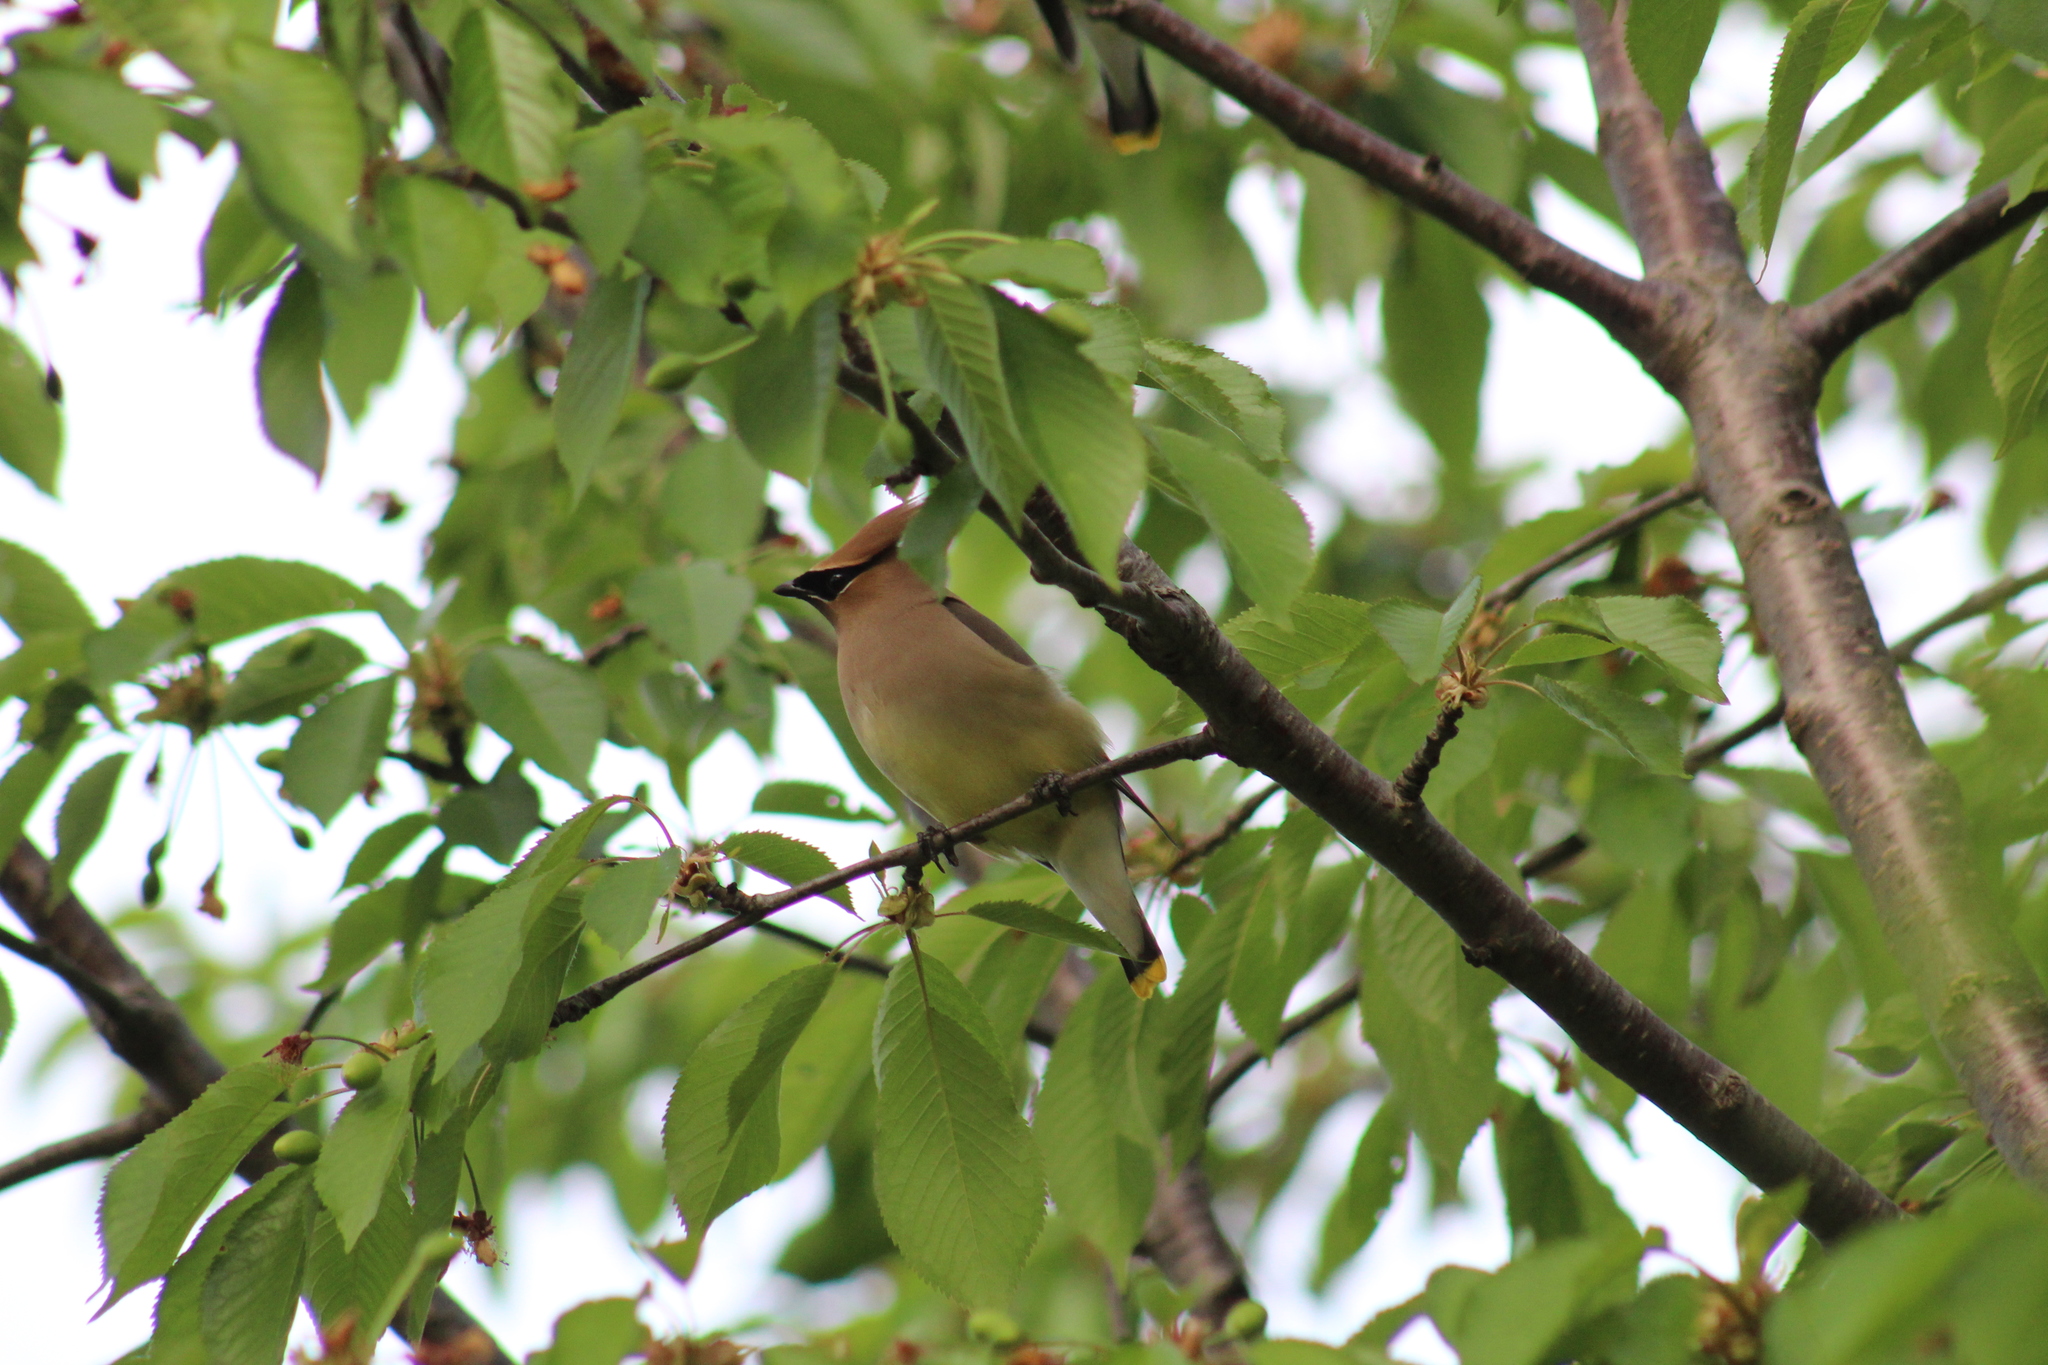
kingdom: Animalia
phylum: Chordata
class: Aves
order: Passeriformes
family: Bombycillidae
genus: Bombycilla
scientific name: Bombycilla cedrorum
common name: Cedar waxwing
